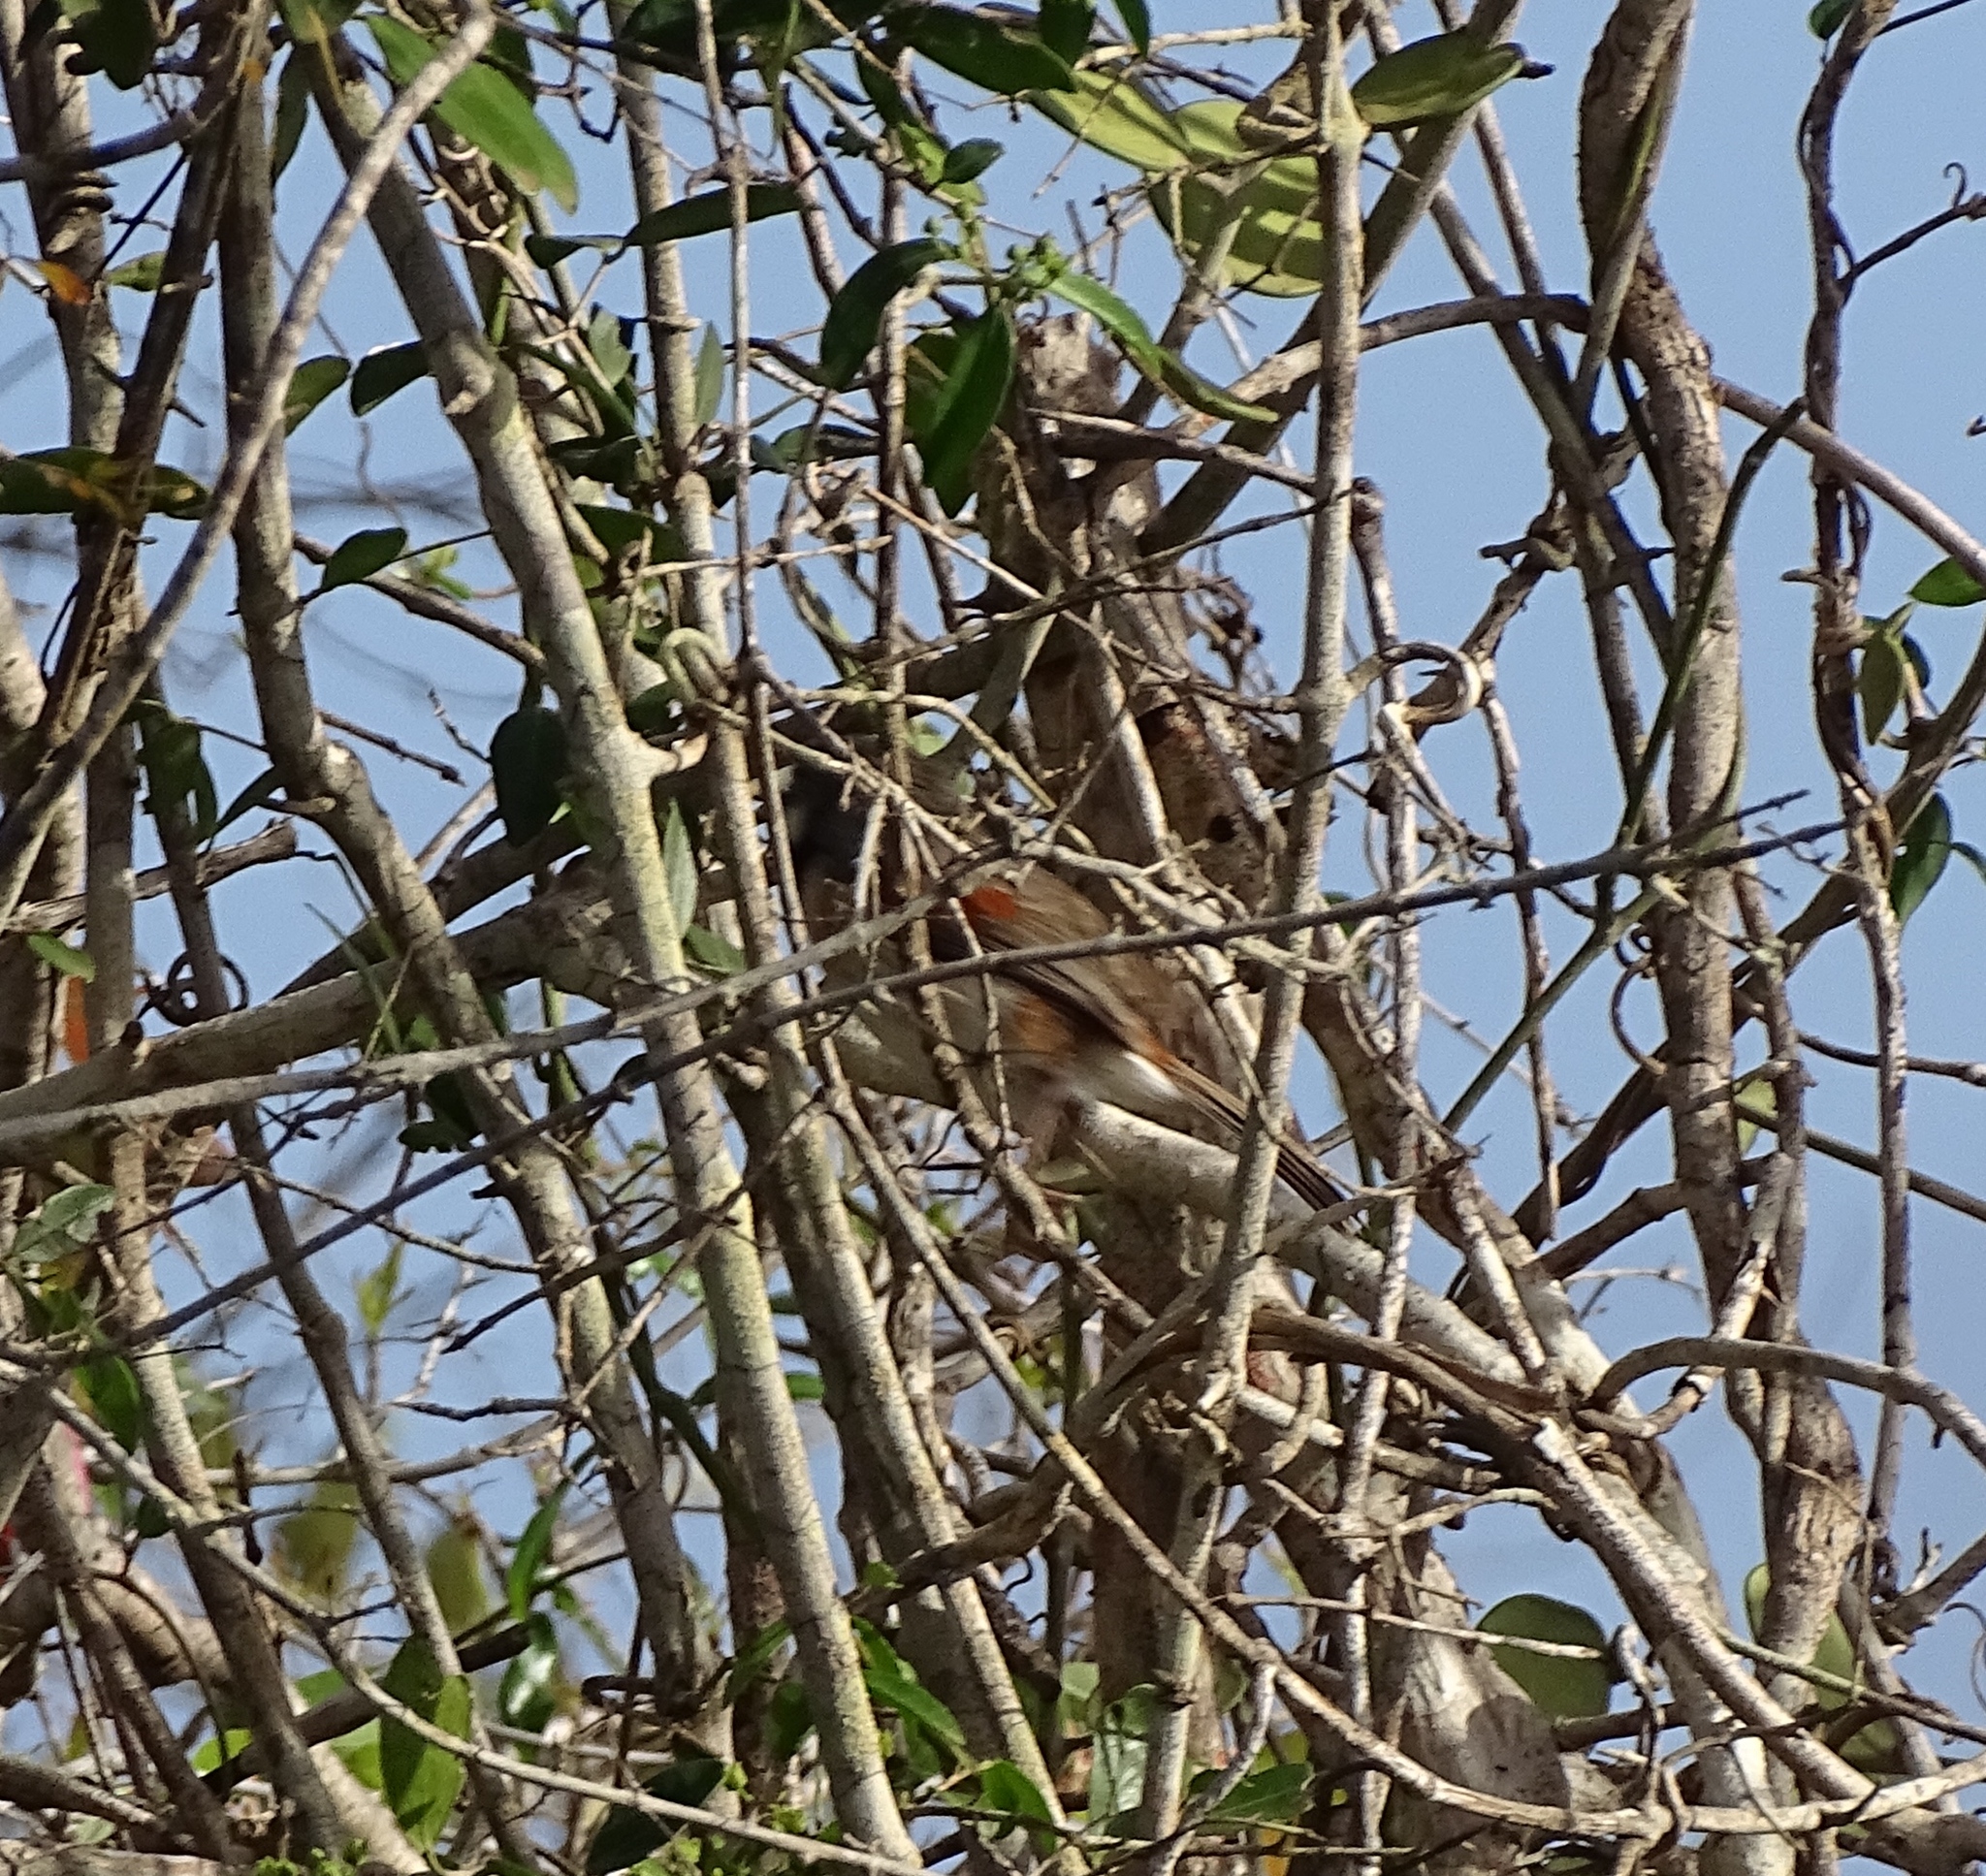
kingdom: Animalia
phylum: Chordata
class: Aves
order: Passeriformes
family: Vangidae
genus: Calicalicus
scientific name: Calicalicus rufocarpalis
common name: Red-shouldered vanga
